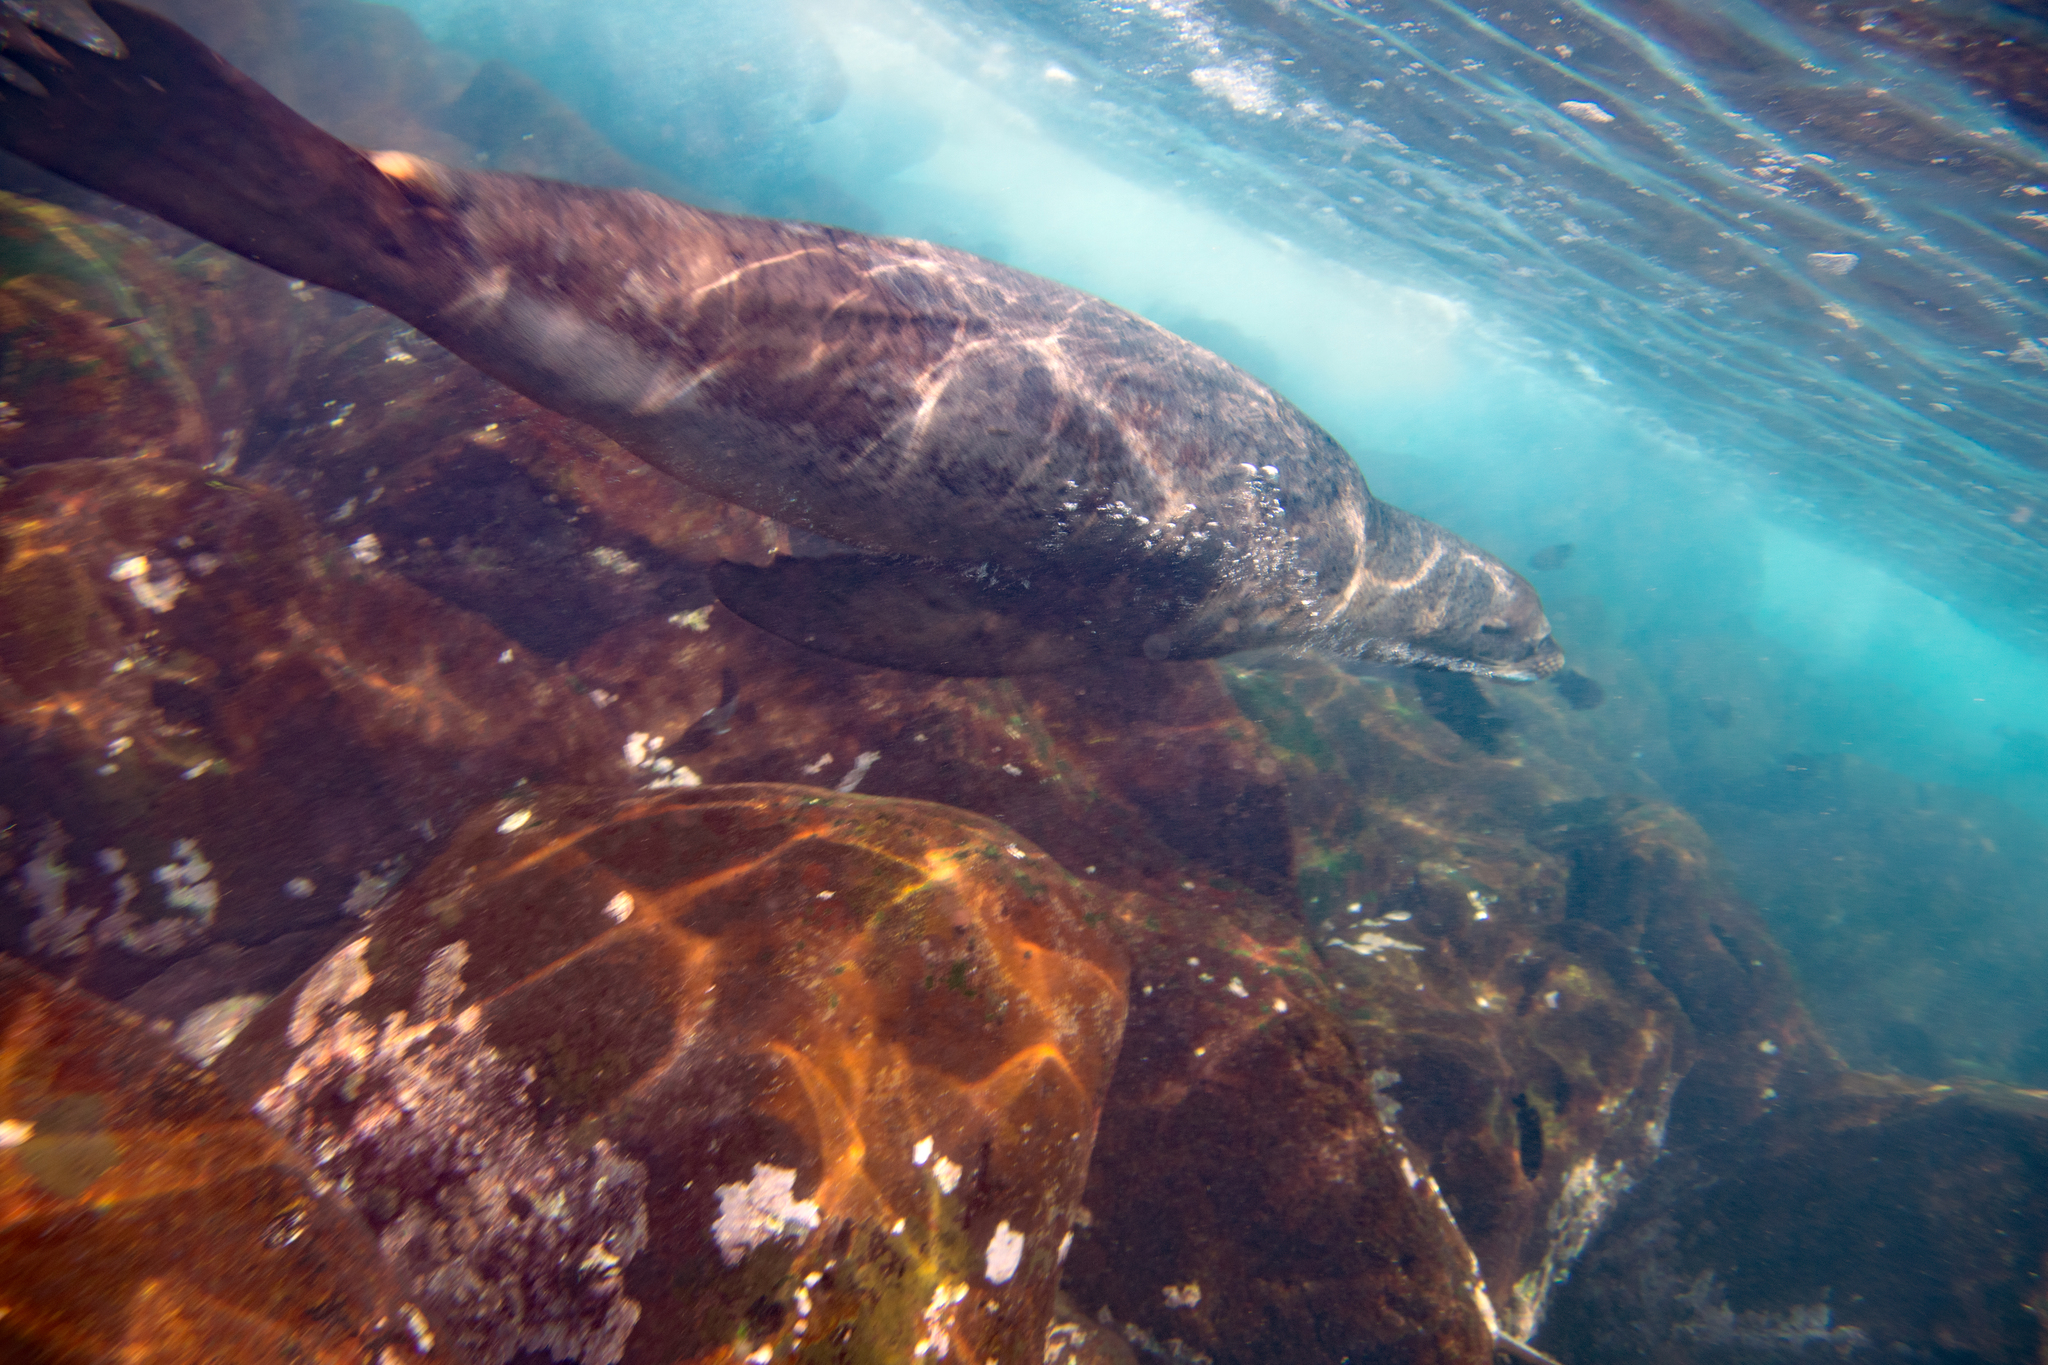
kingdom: Animalia
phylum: Chordata
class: Mammalia
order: Carnivora
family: Otariidae
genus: Zalophus
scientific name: Zalophus wollebaeki
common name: Galapagos sea lion
